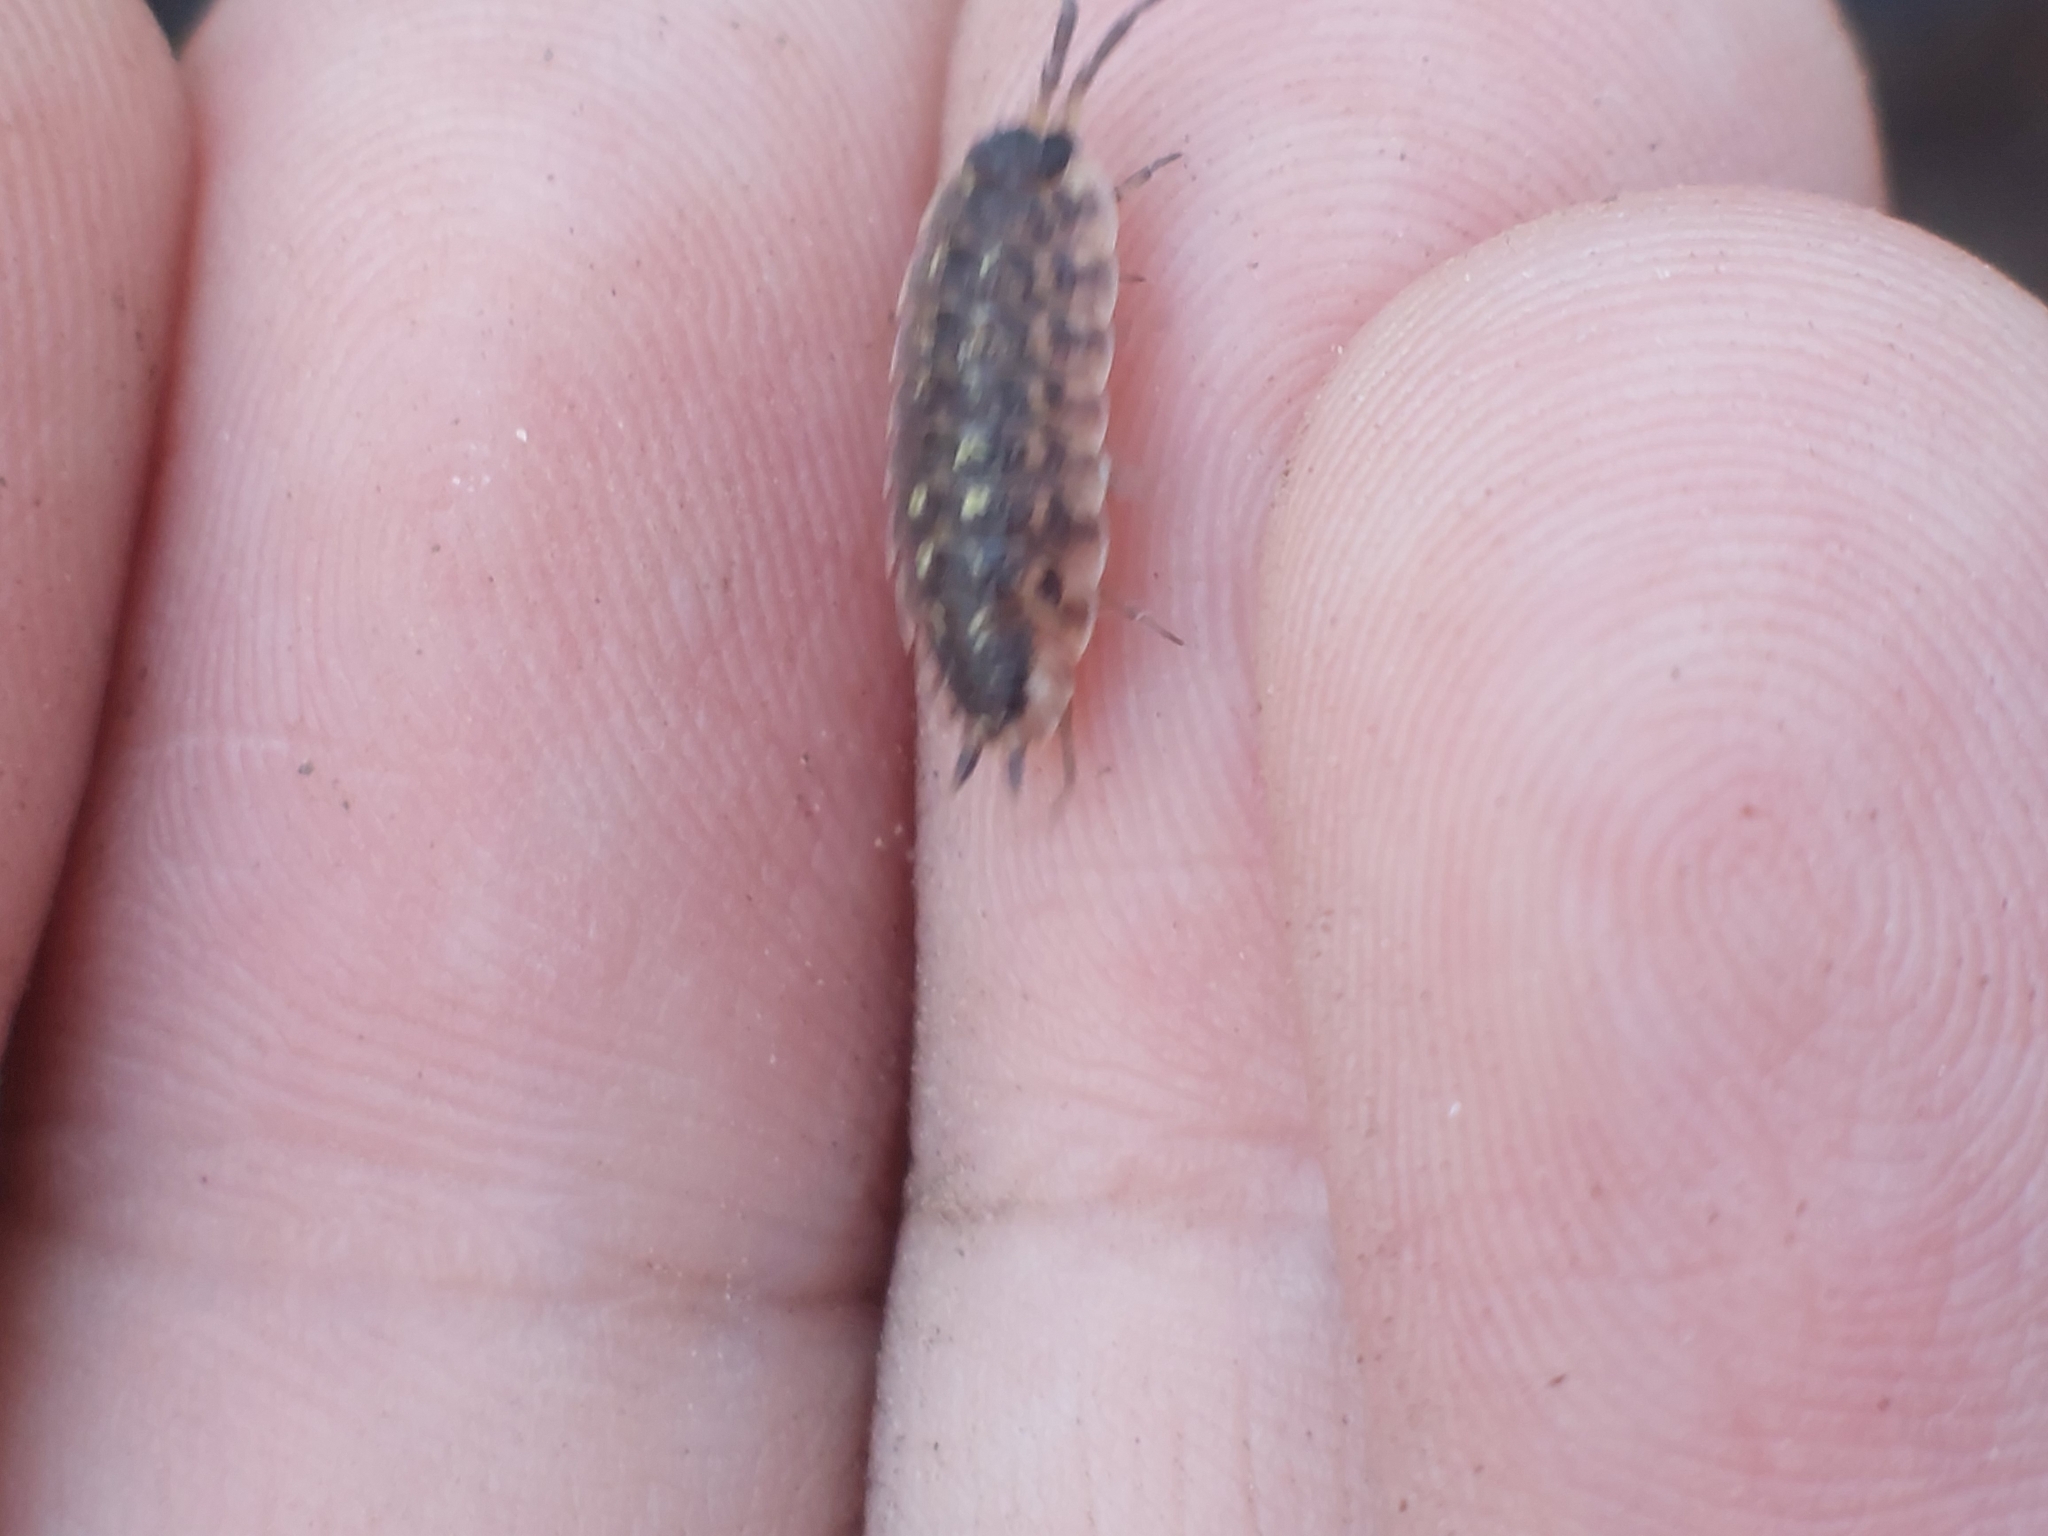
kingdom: Animalia
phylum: Arthropoda
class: Malacostraca
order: Isopoda
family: Porcellionidae
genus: Porcellio
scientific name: Porcellio spinicornis
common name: Painted woodlouse
